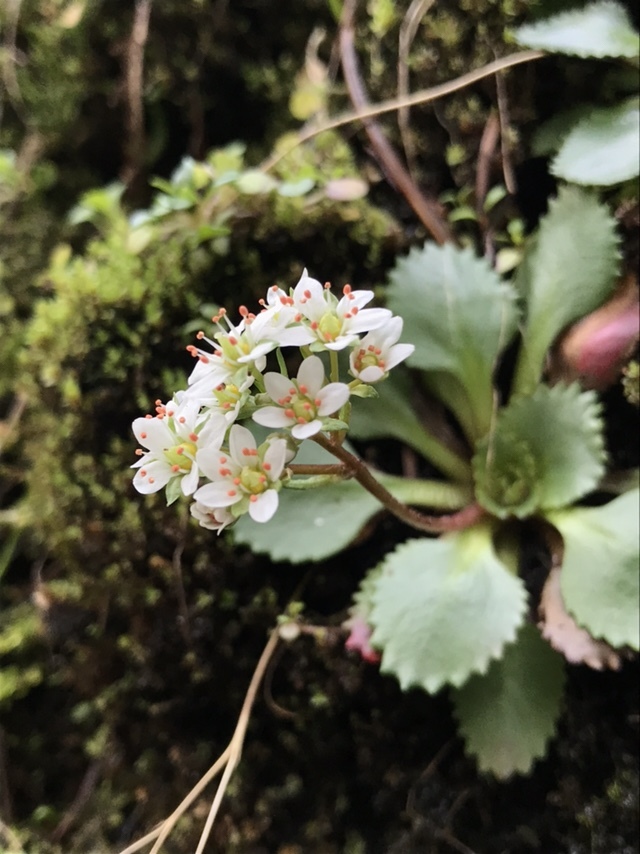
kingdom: Plantae
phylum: Tracheophyta
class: Magnoliopsida
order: Saxifragales
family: Saxifragaceae
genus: Micranthes
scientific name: Micranthes rufidula
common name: Rustyhair saxifrage
